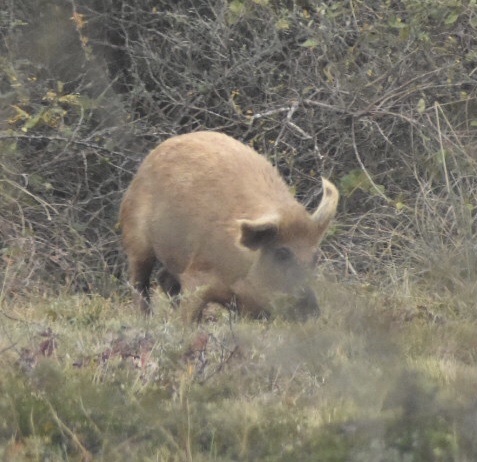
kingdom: Animalia
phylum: Chordata
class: Mammalia
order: Artiodactyla
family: Suidae
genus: Sus
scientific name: Sus scrofa
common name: Wild boar
